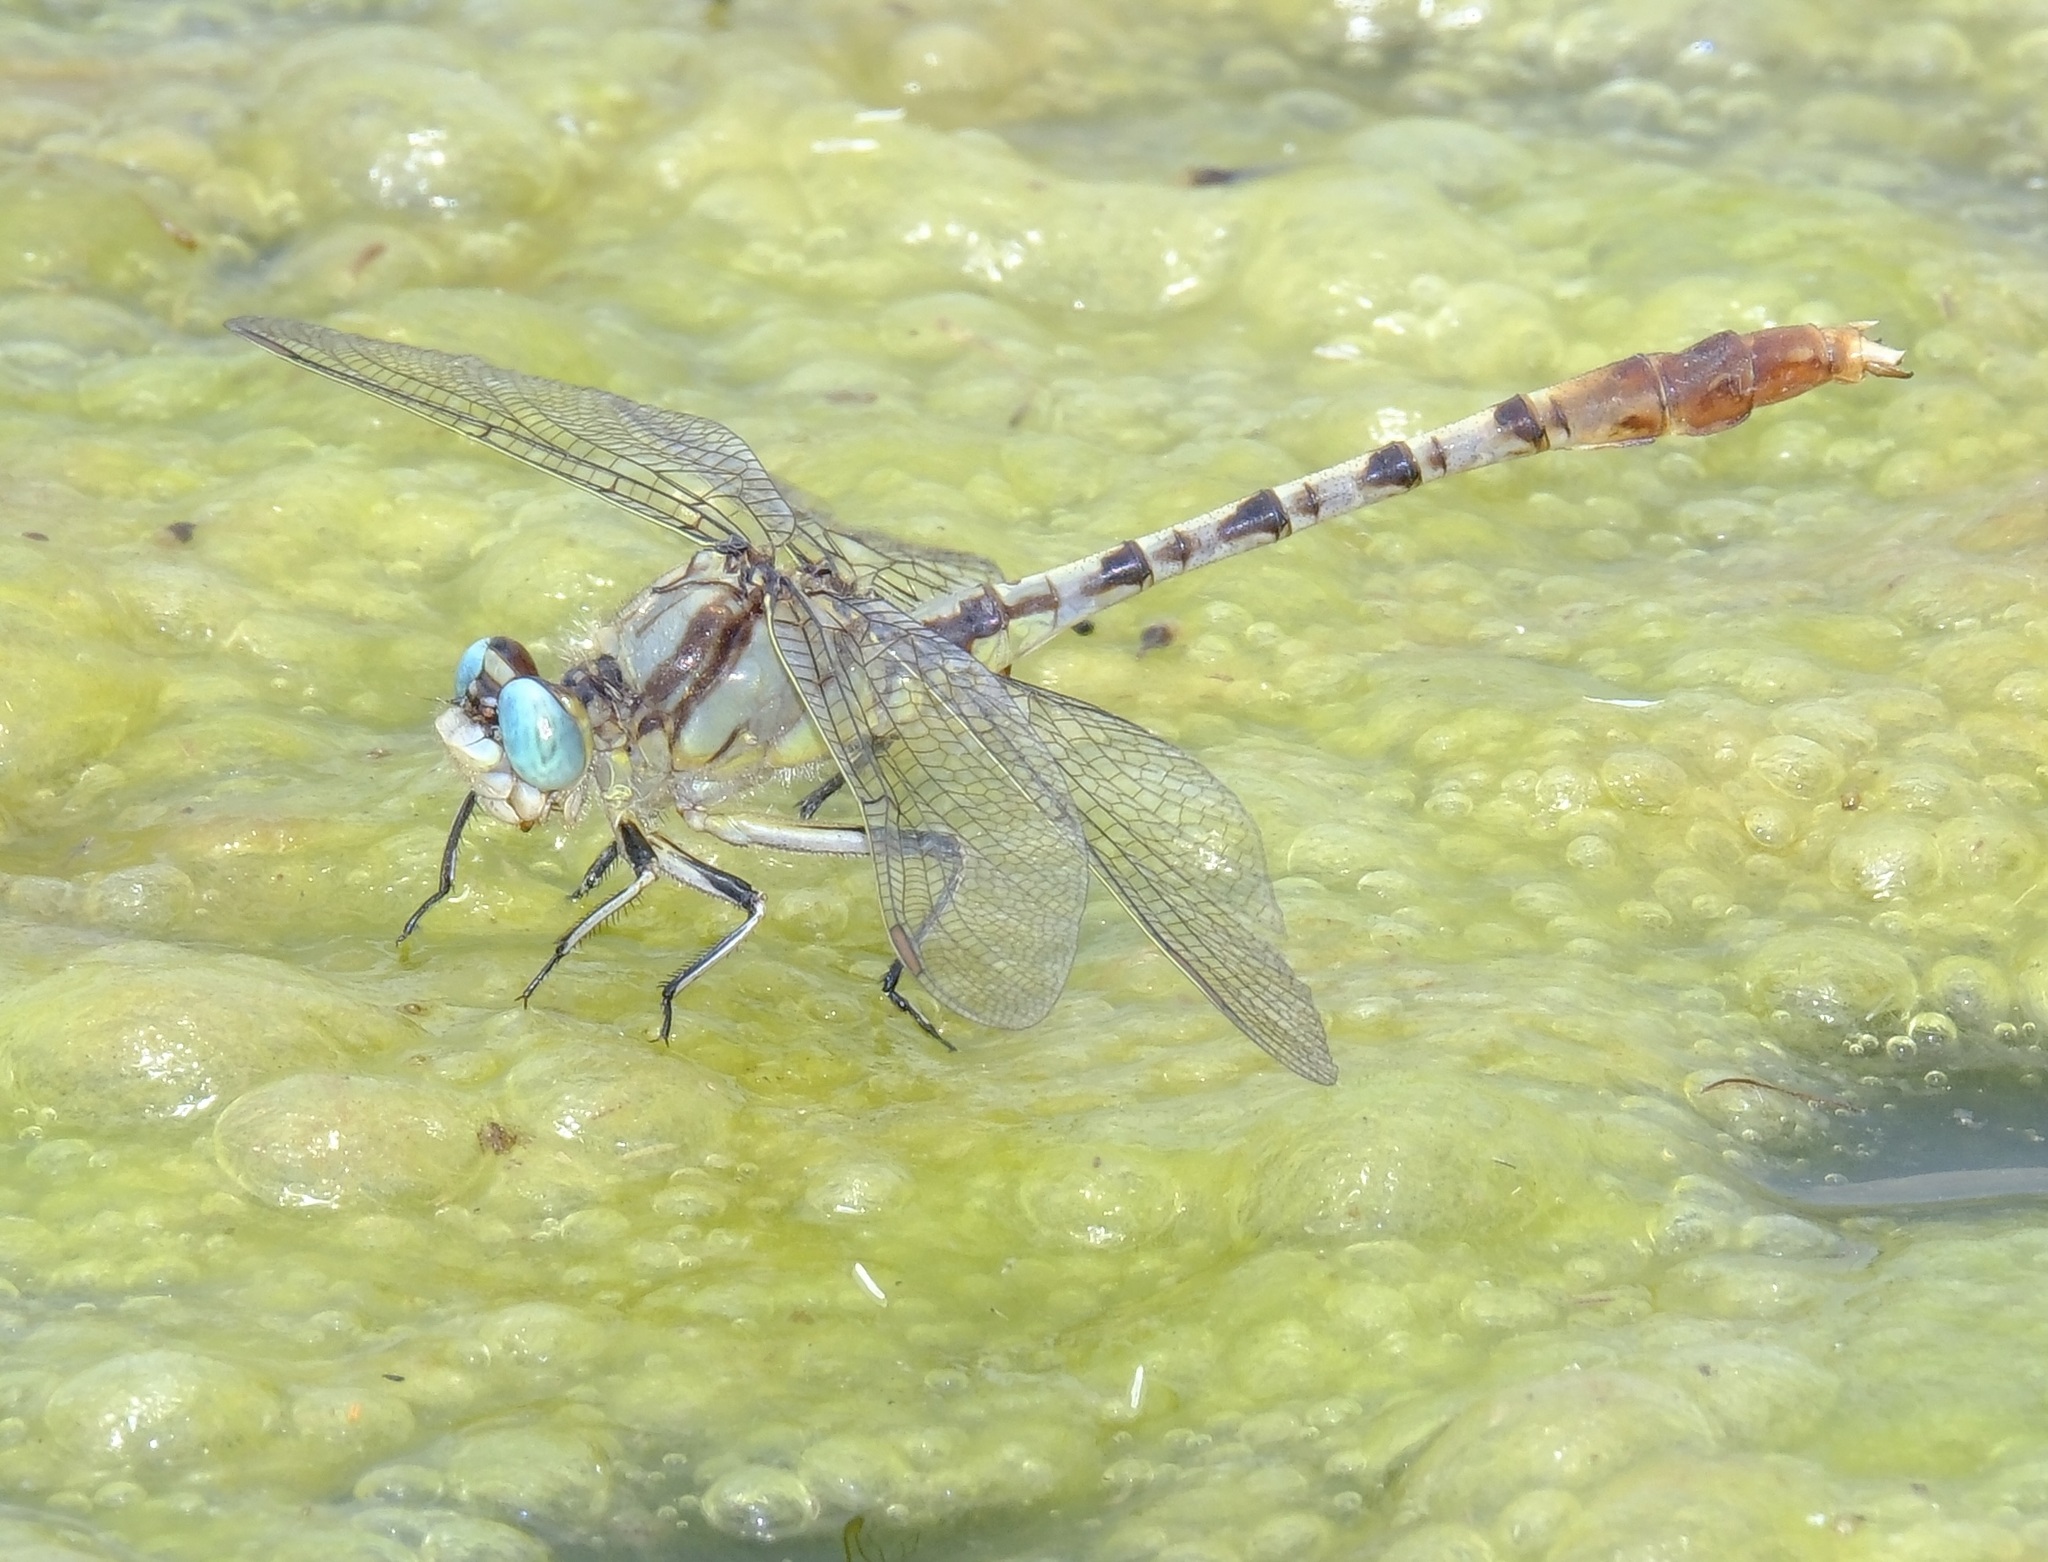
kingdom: Animalia
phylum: Arthropoda
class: Insecta
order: Odonata
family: Gomphidae
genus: Arigomphus
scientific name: Arigomphus lentulus
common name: Stillwater clubtail
